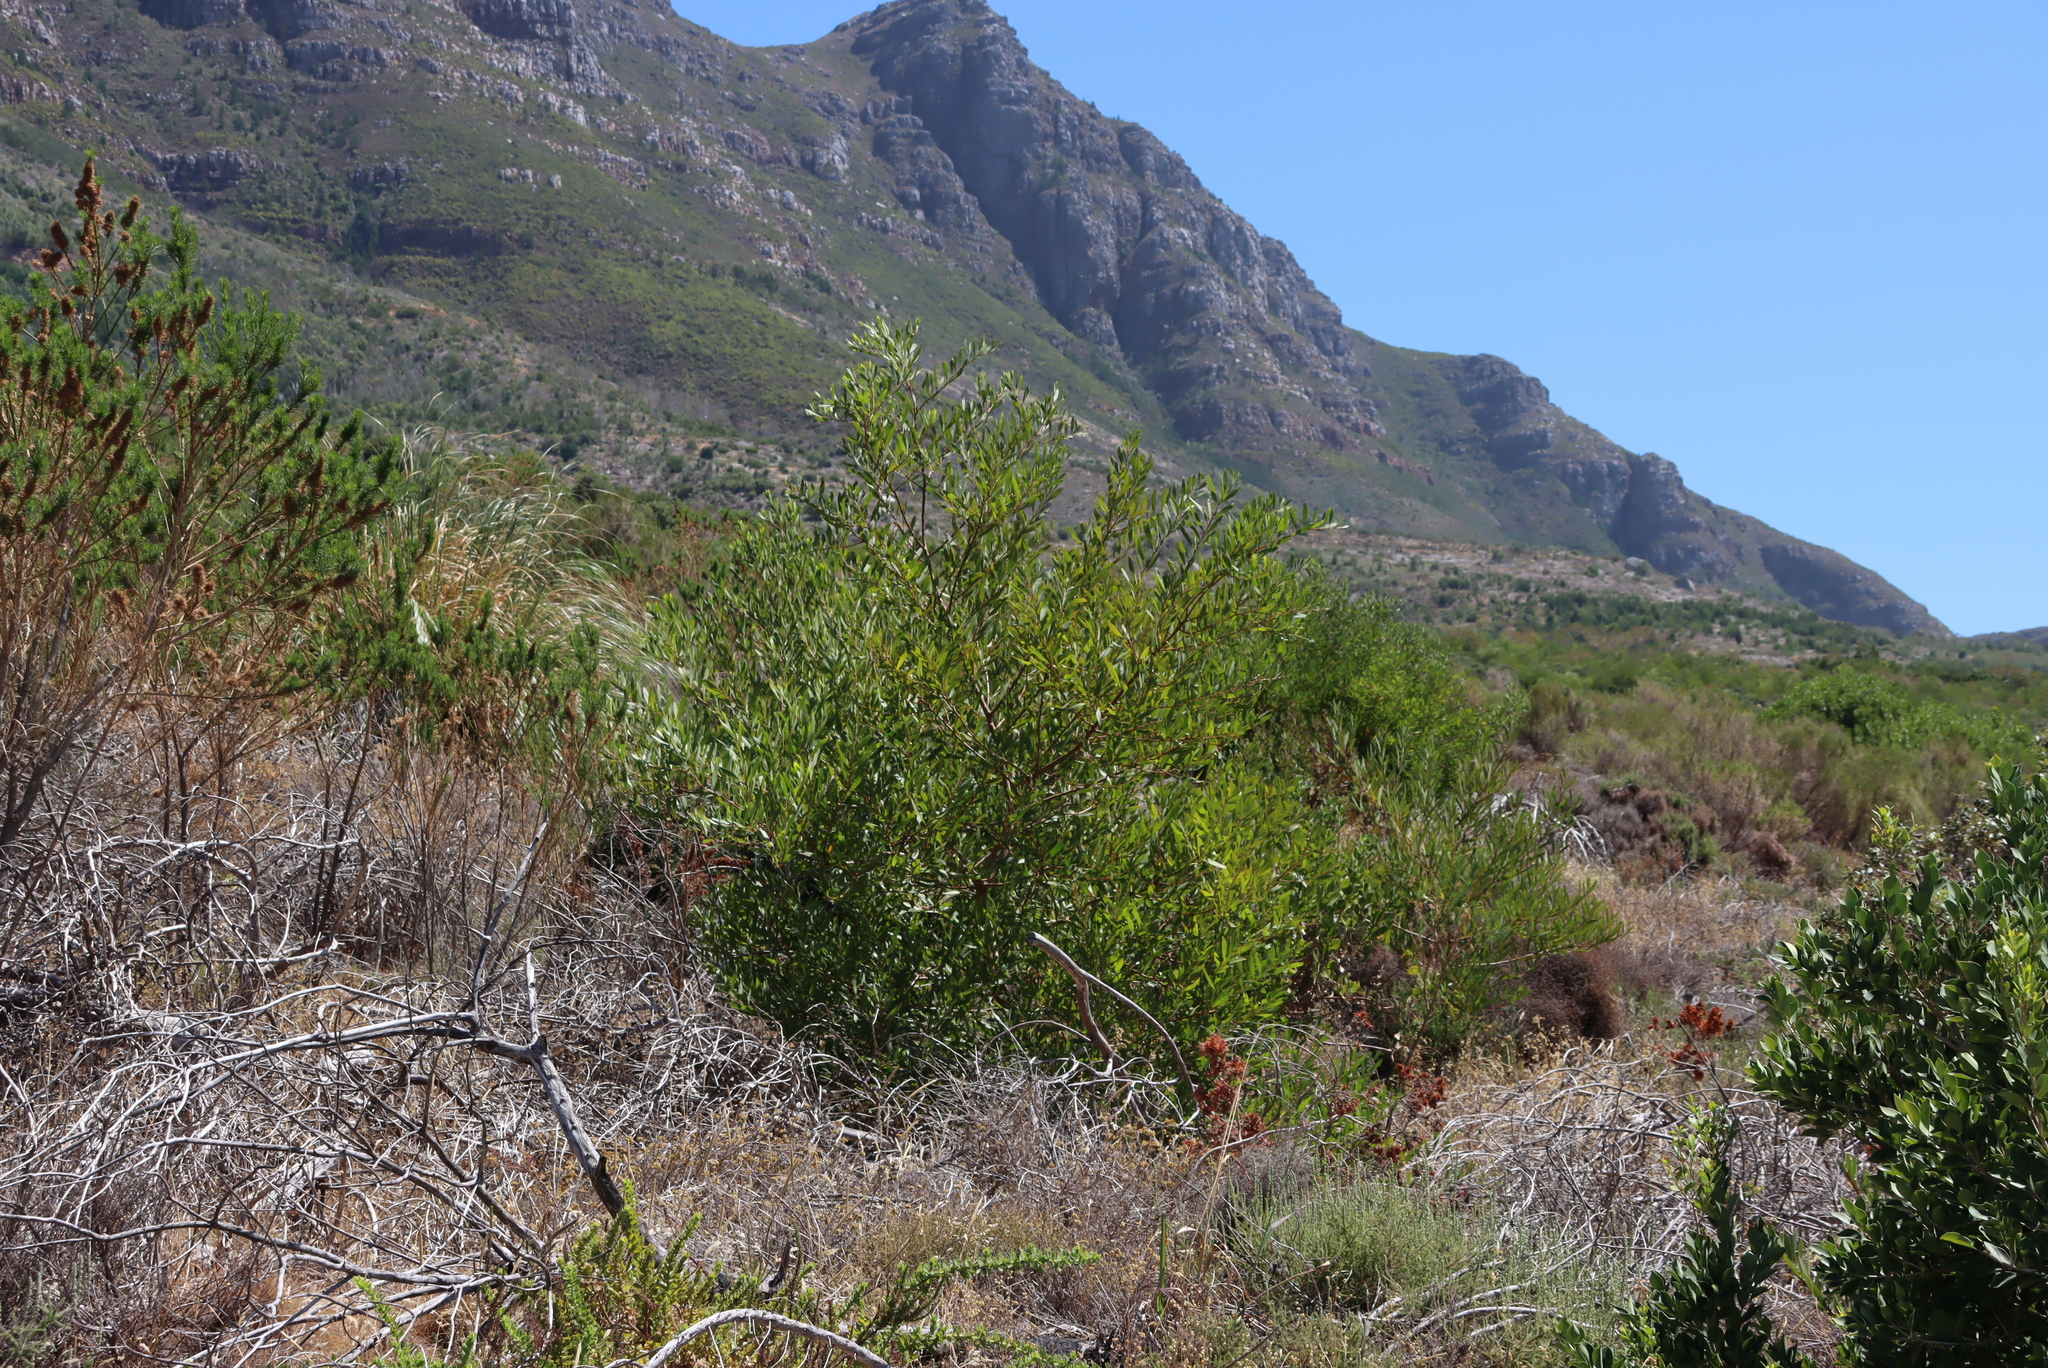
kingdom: Plantae
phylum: Tracheophyta
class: Magnoliopsida
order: Fabales
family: Fabaceae
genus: Acacia
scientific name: Acacia longifolia
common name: Sydney golden wattle
